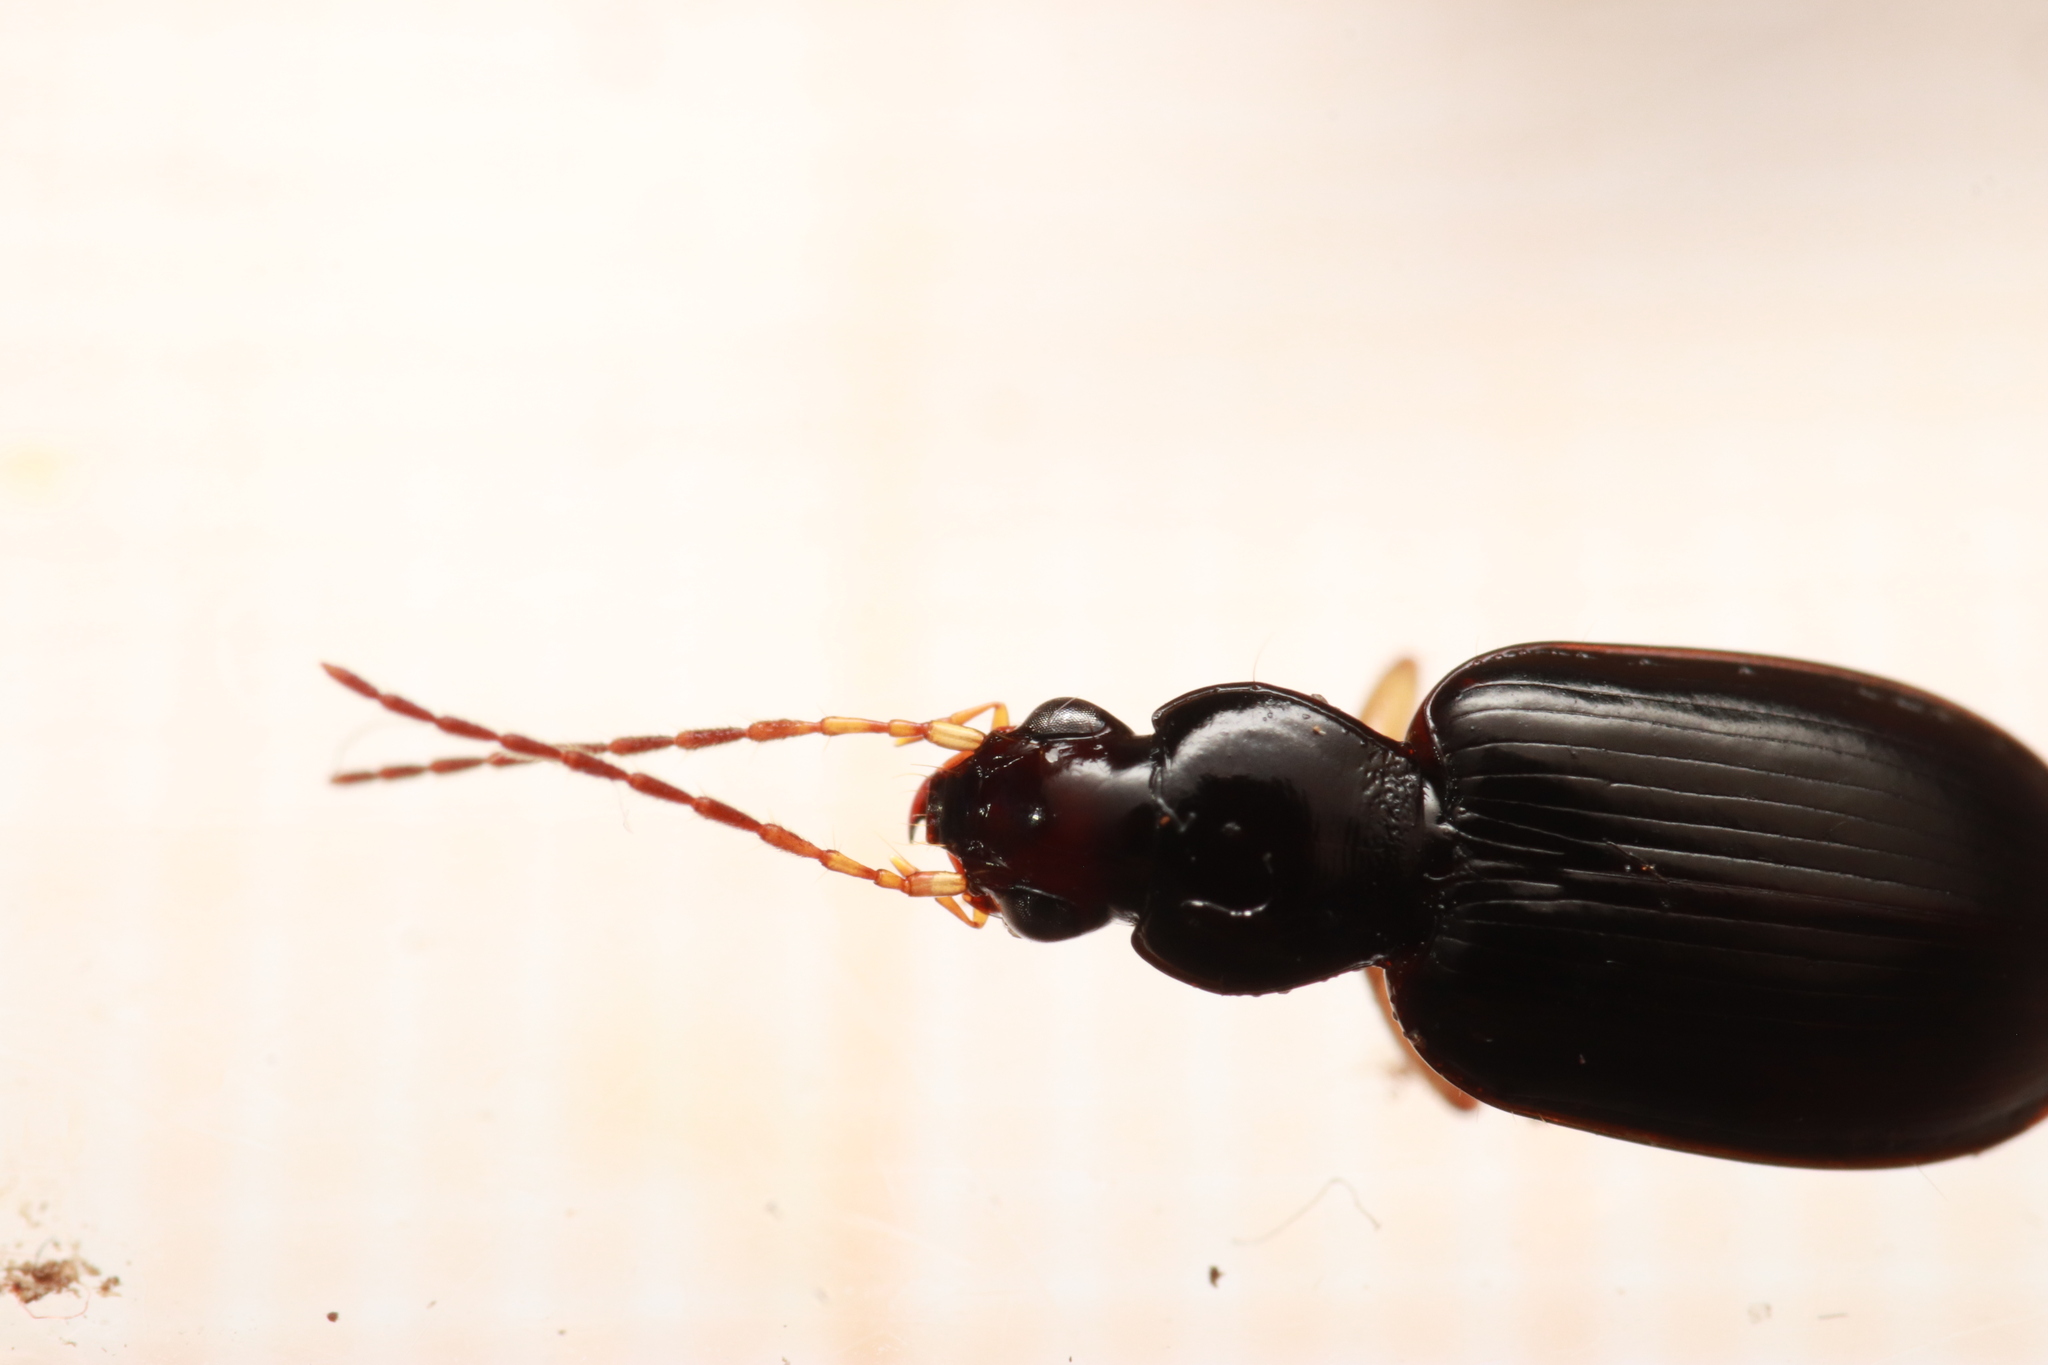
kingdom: Animalia
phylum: Arthropoda
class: Insecta
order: Coleoptera
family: Carabidae
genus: Paranchus
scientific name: Paranchus albipes
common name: White-legged harp ground beetle
